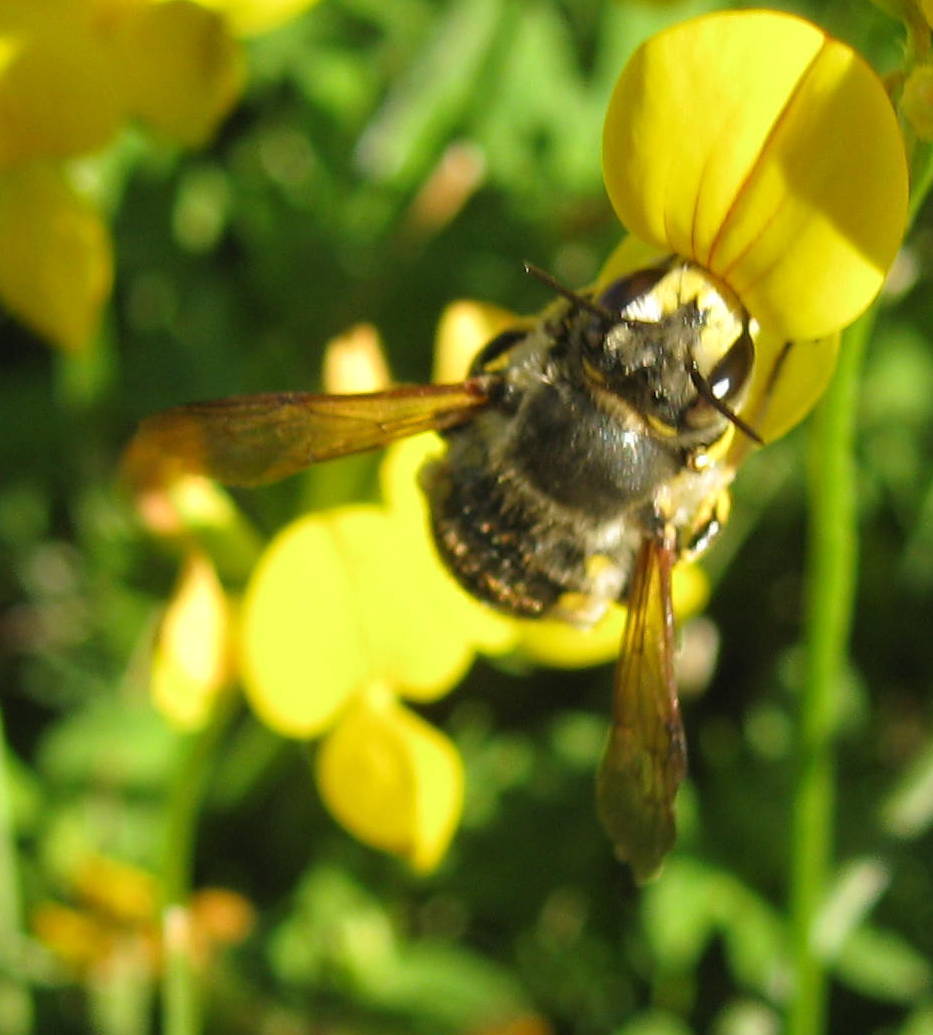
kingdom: Animalia
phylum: Arthropoda
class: Insecta
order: Hymenoptera
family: Megachilidae
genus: Anthidium
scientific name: Anthidium manicatum
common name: Wool carder bee
